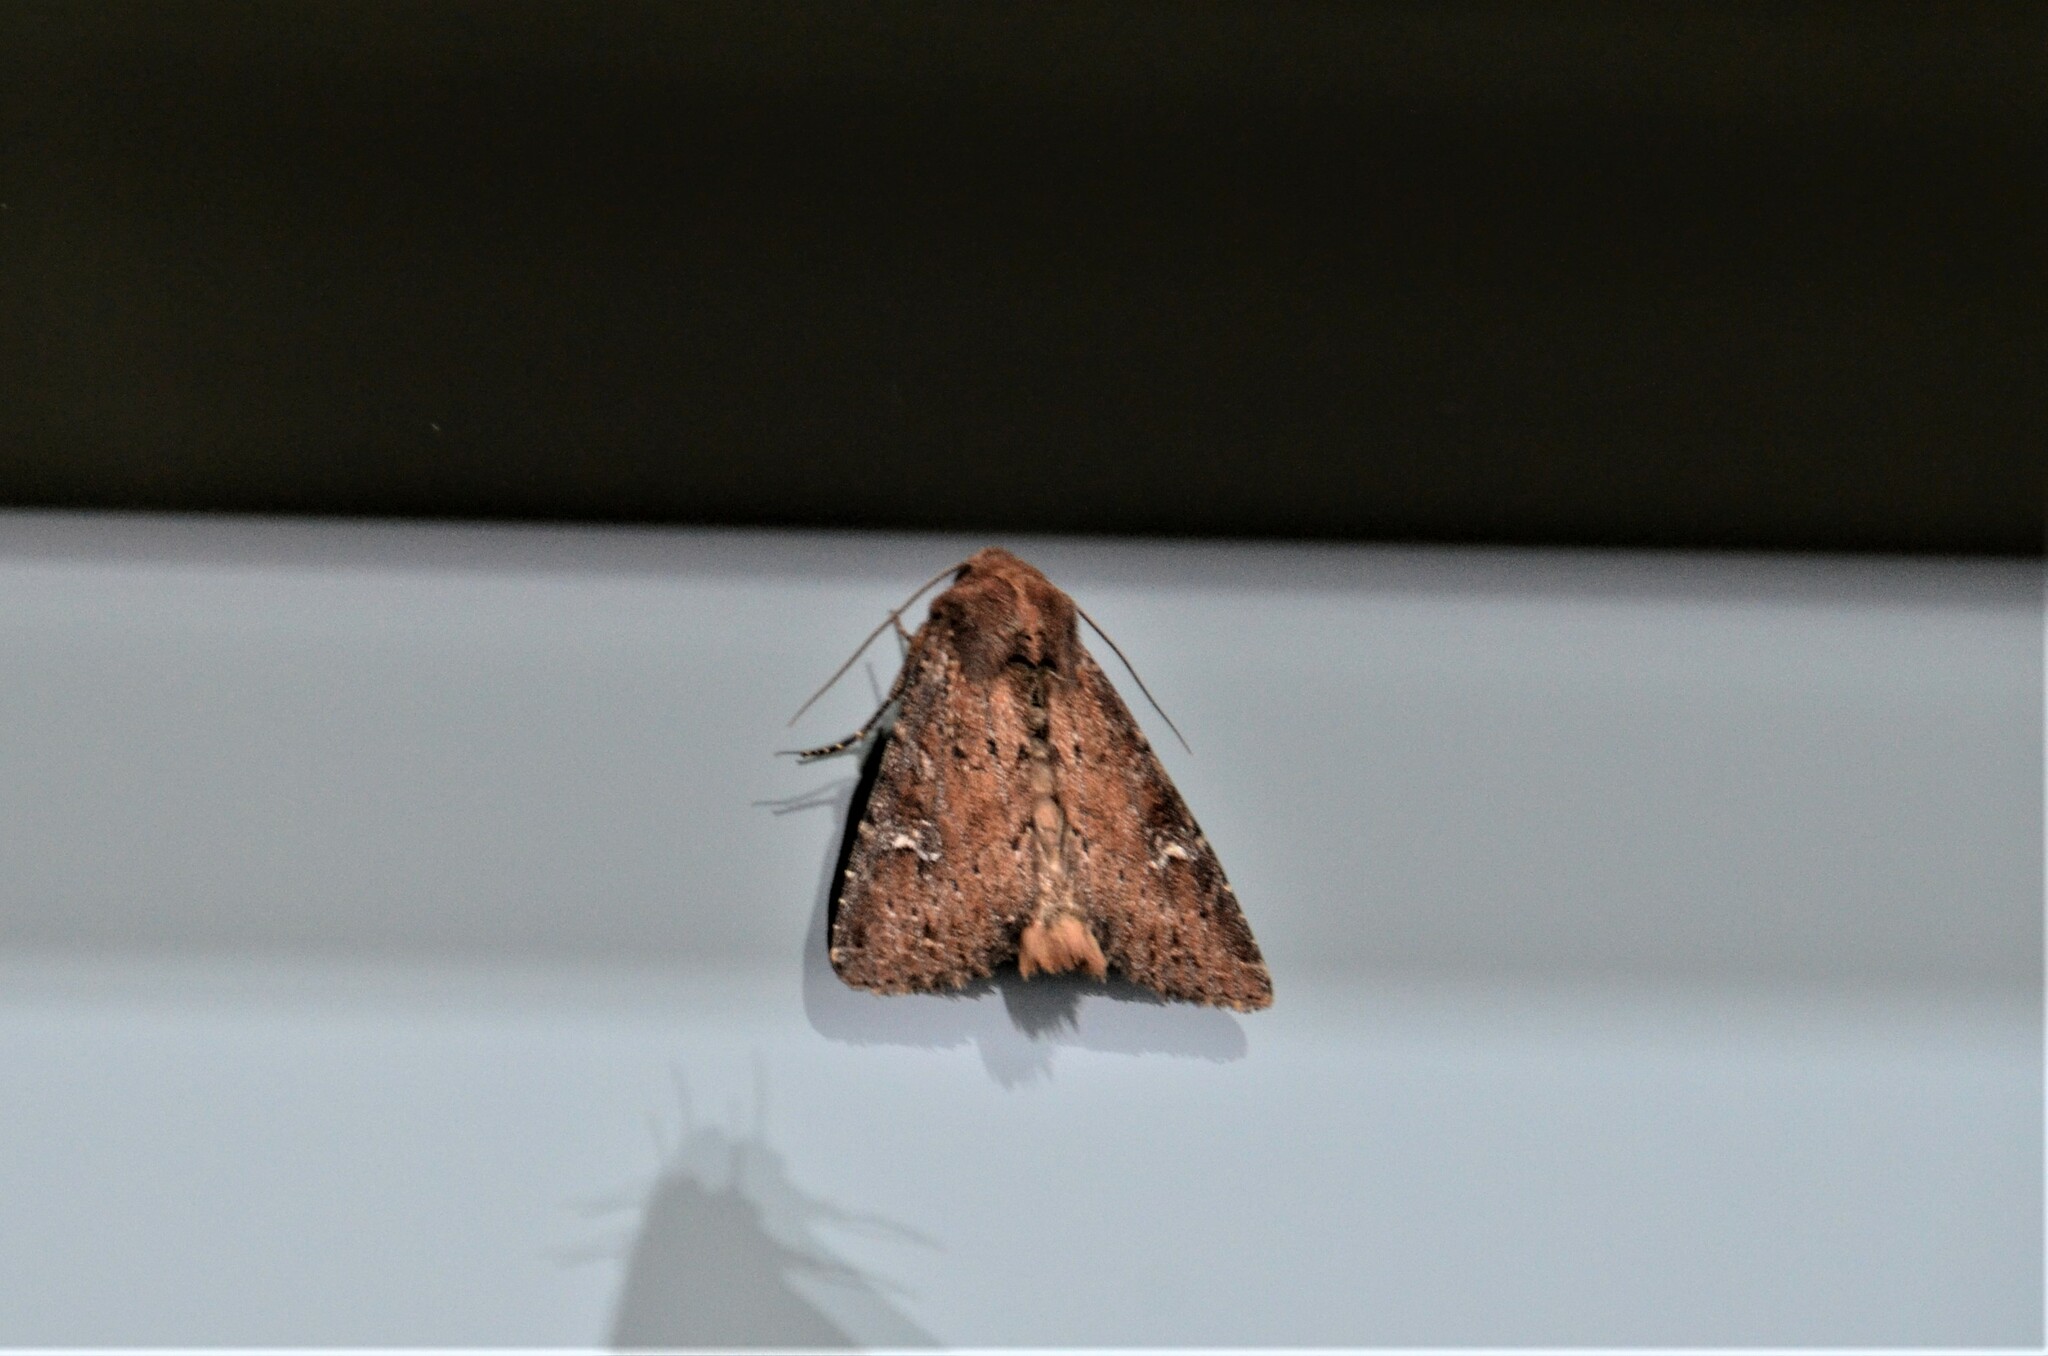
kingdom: Animalia
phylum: Arthropoda
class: Insecta
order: Lepidoptera
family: Noctuidae
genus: Apamea
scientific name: Apamea lateritia
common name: Scarce brindle
